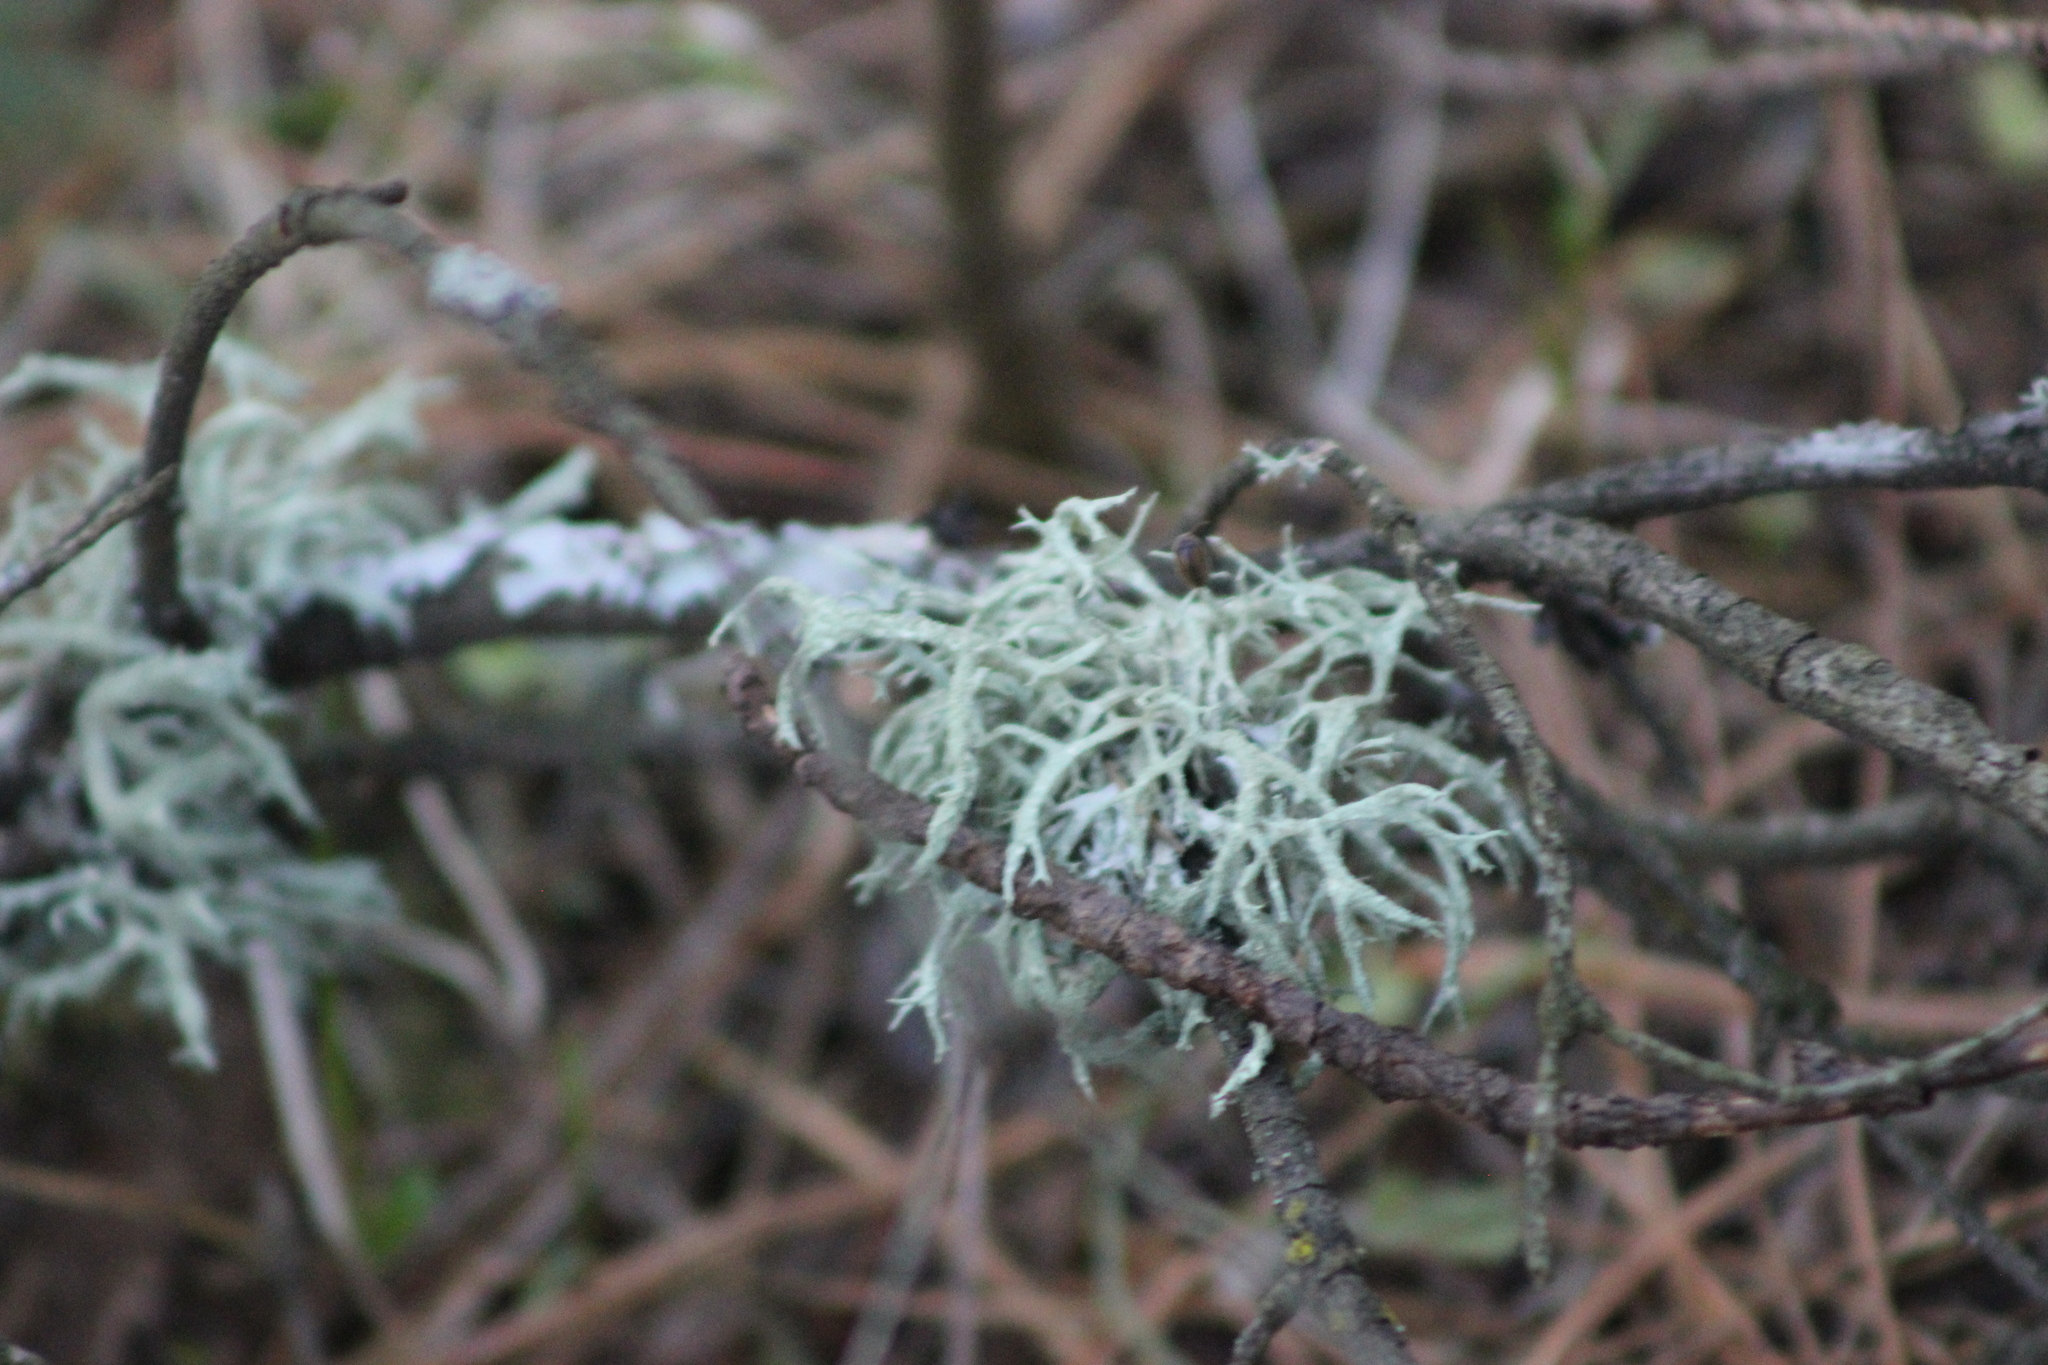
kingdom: Fungi
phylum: Ascomycota
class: Lecanoromycetes
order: Lecanorales
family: Parmeliaceae
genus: Evernia
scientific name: Evernia mesomorpha
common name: Boreal oak moss lichen
